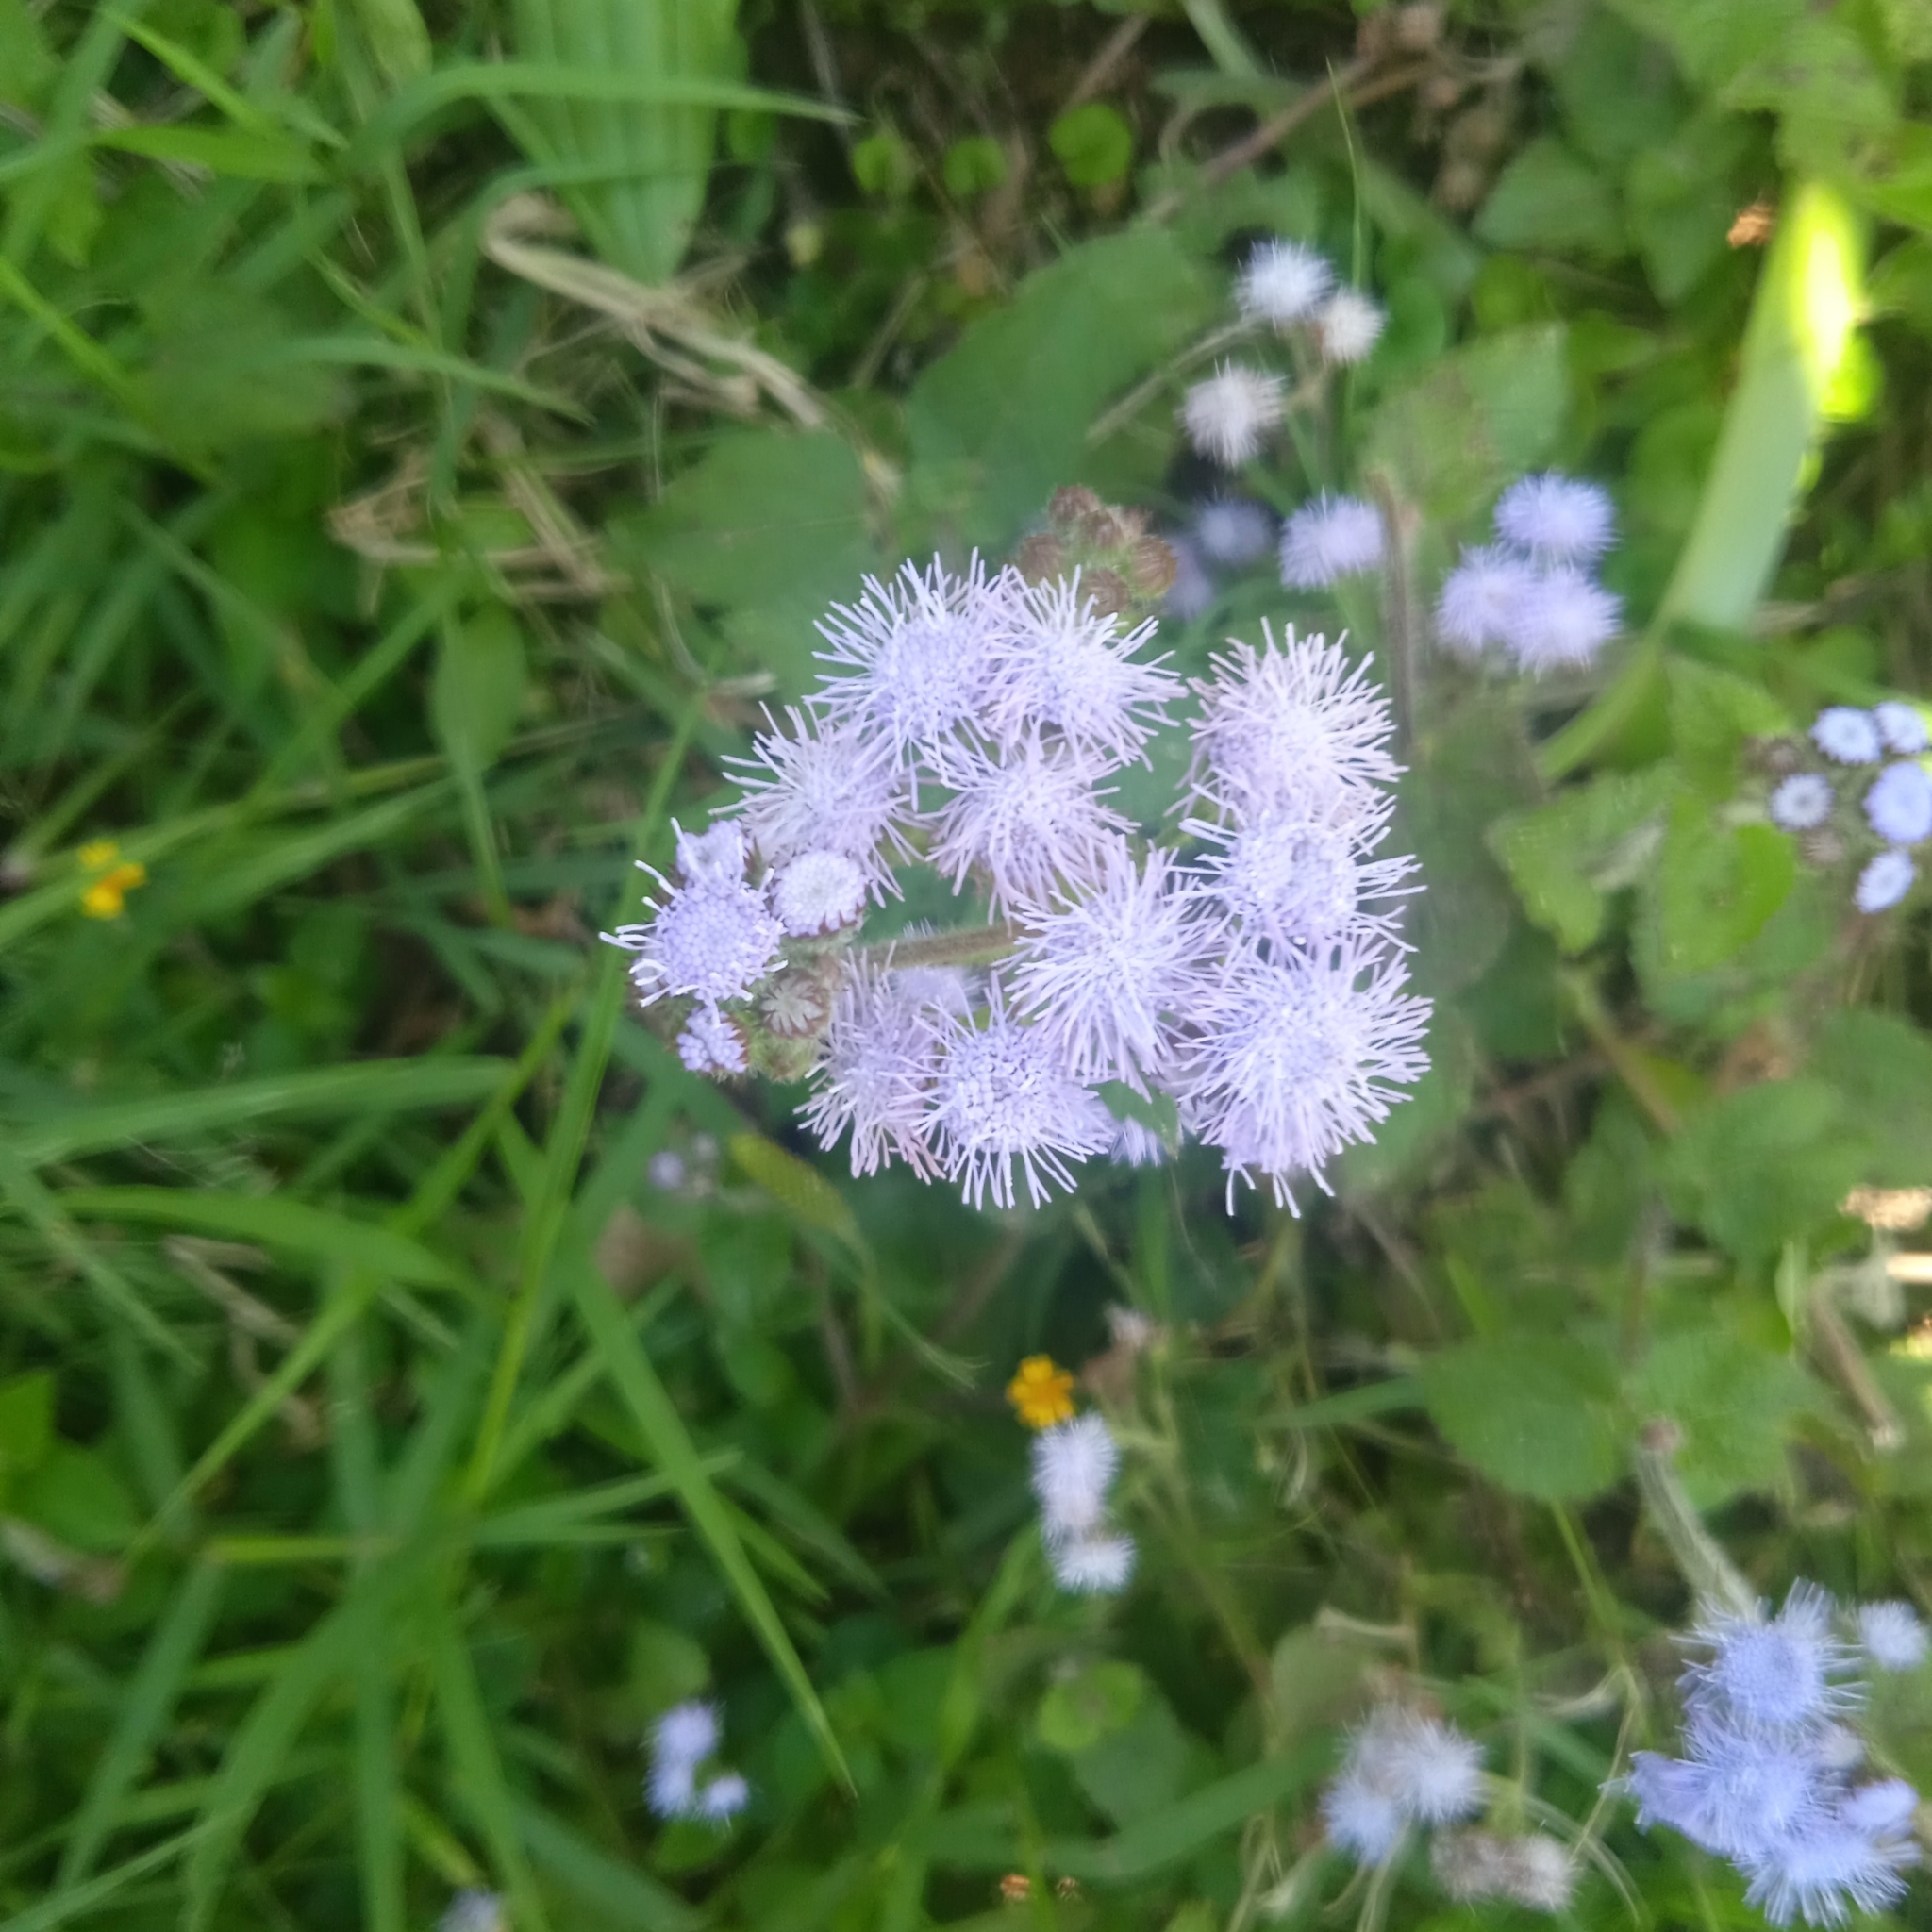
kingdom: Plantae
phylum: Tracheophyta
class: Magnoliopsida
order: Asterales
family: Asteraceae
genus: Ageratum
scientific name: Ageratum houstonianum
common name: Bluemink
